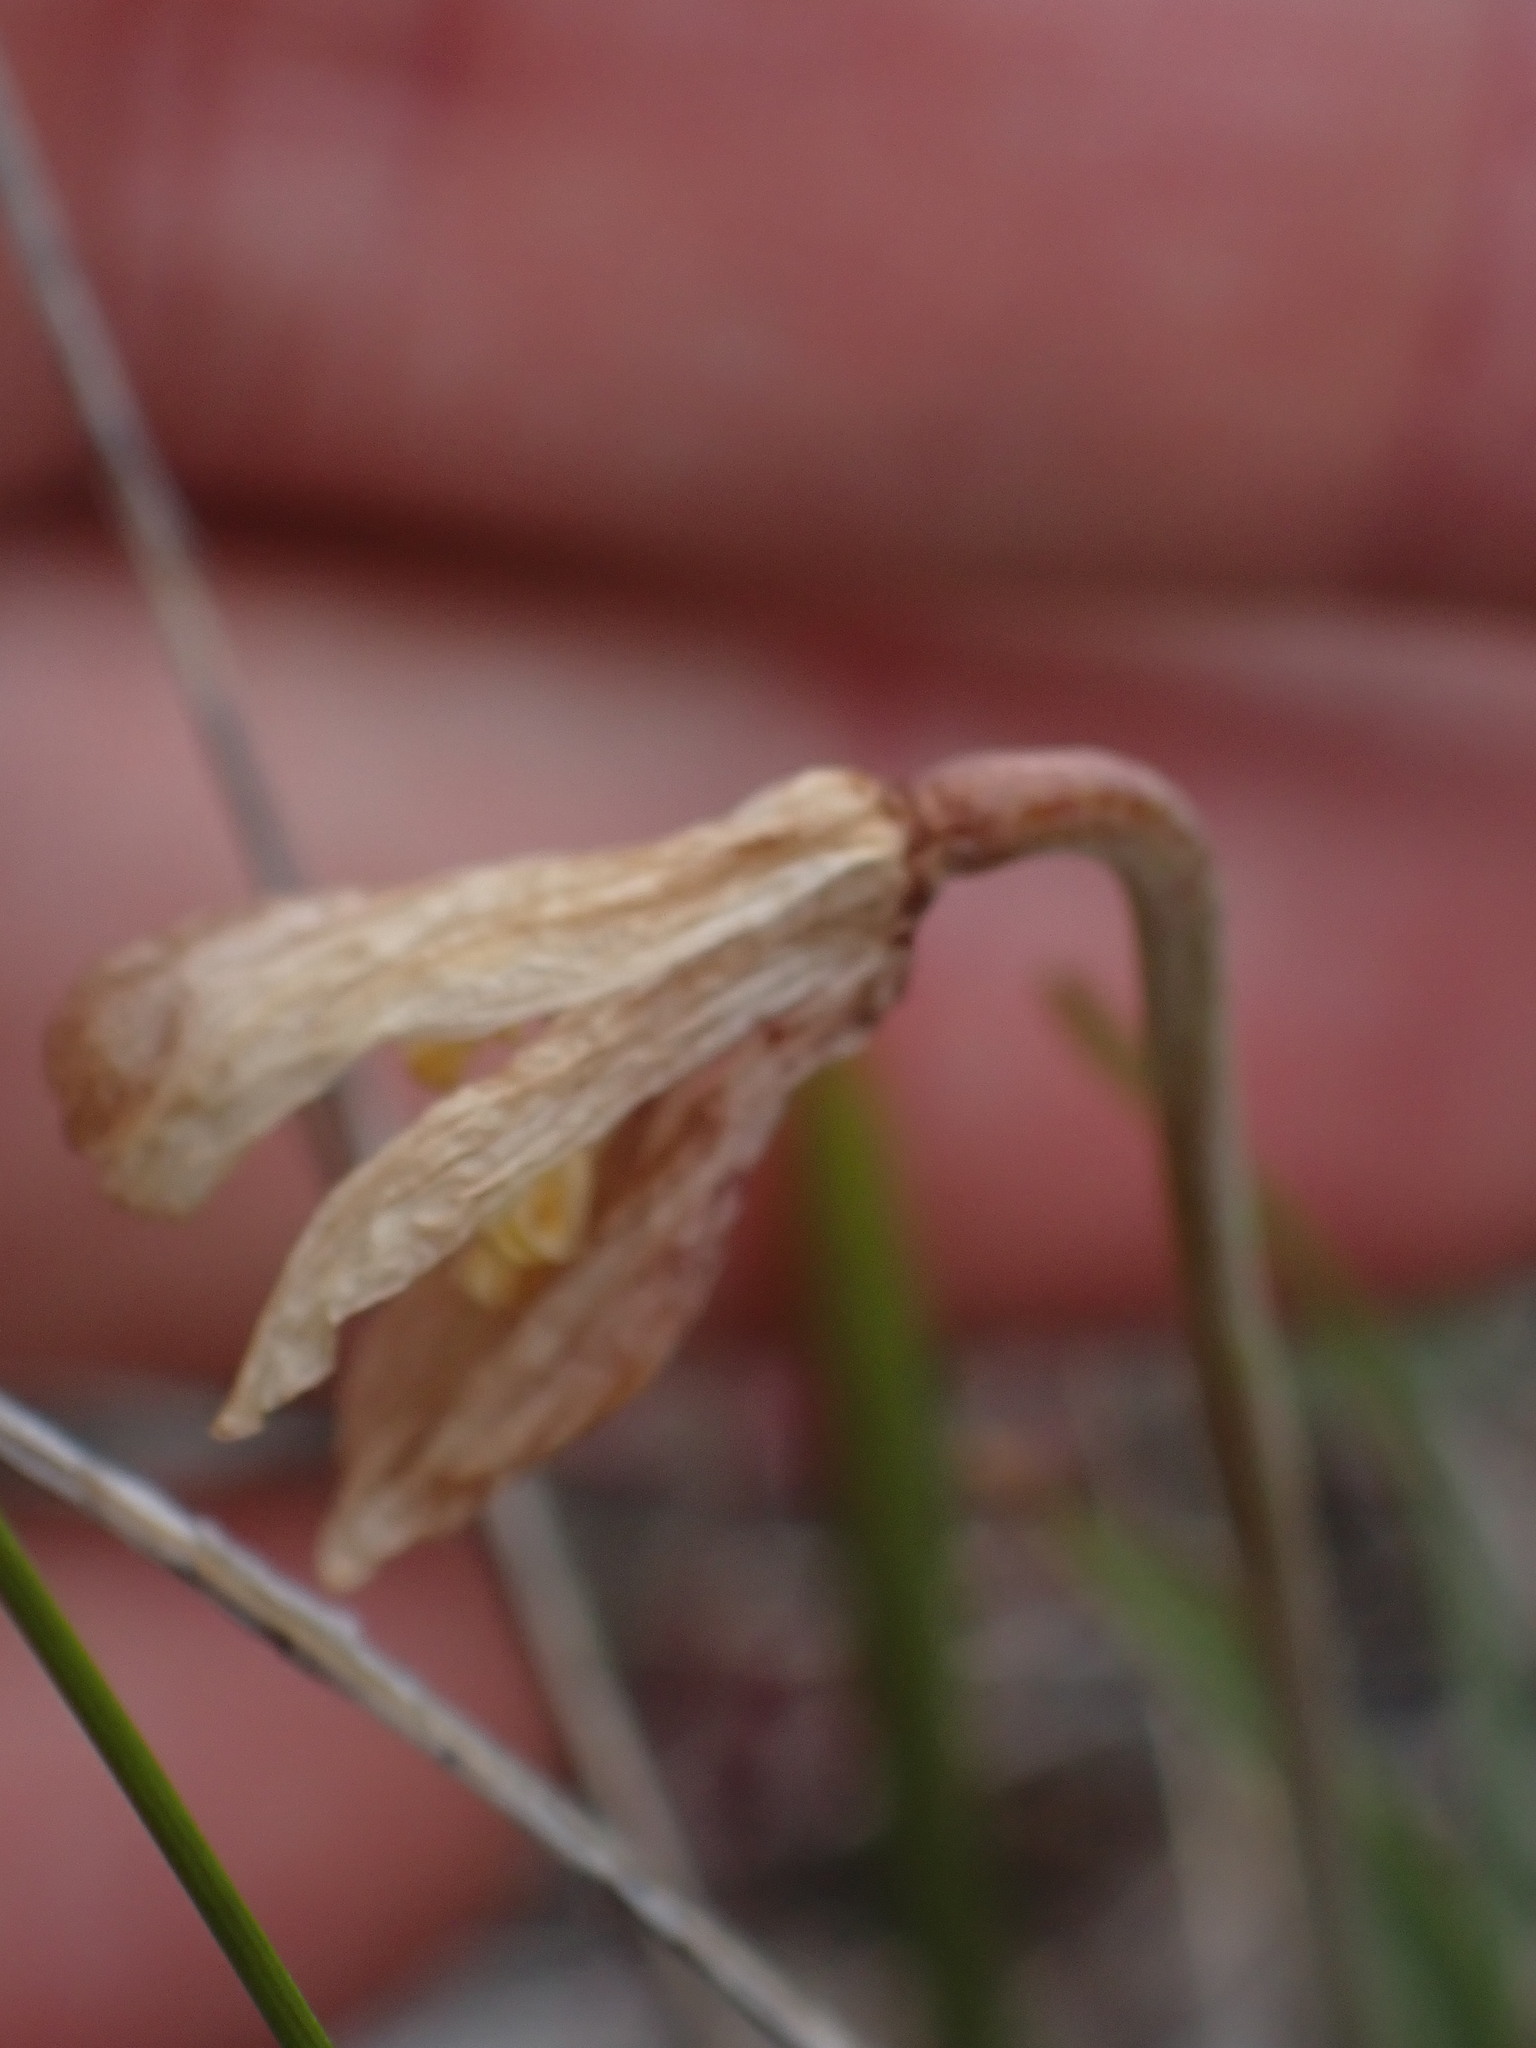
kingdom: Plantae
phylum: Tracheophyta
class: Liliopsida
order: Liliales
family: Liliaceae
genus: Fritillaria
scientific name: Fritillaria pudica
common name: Yellow fritillary
